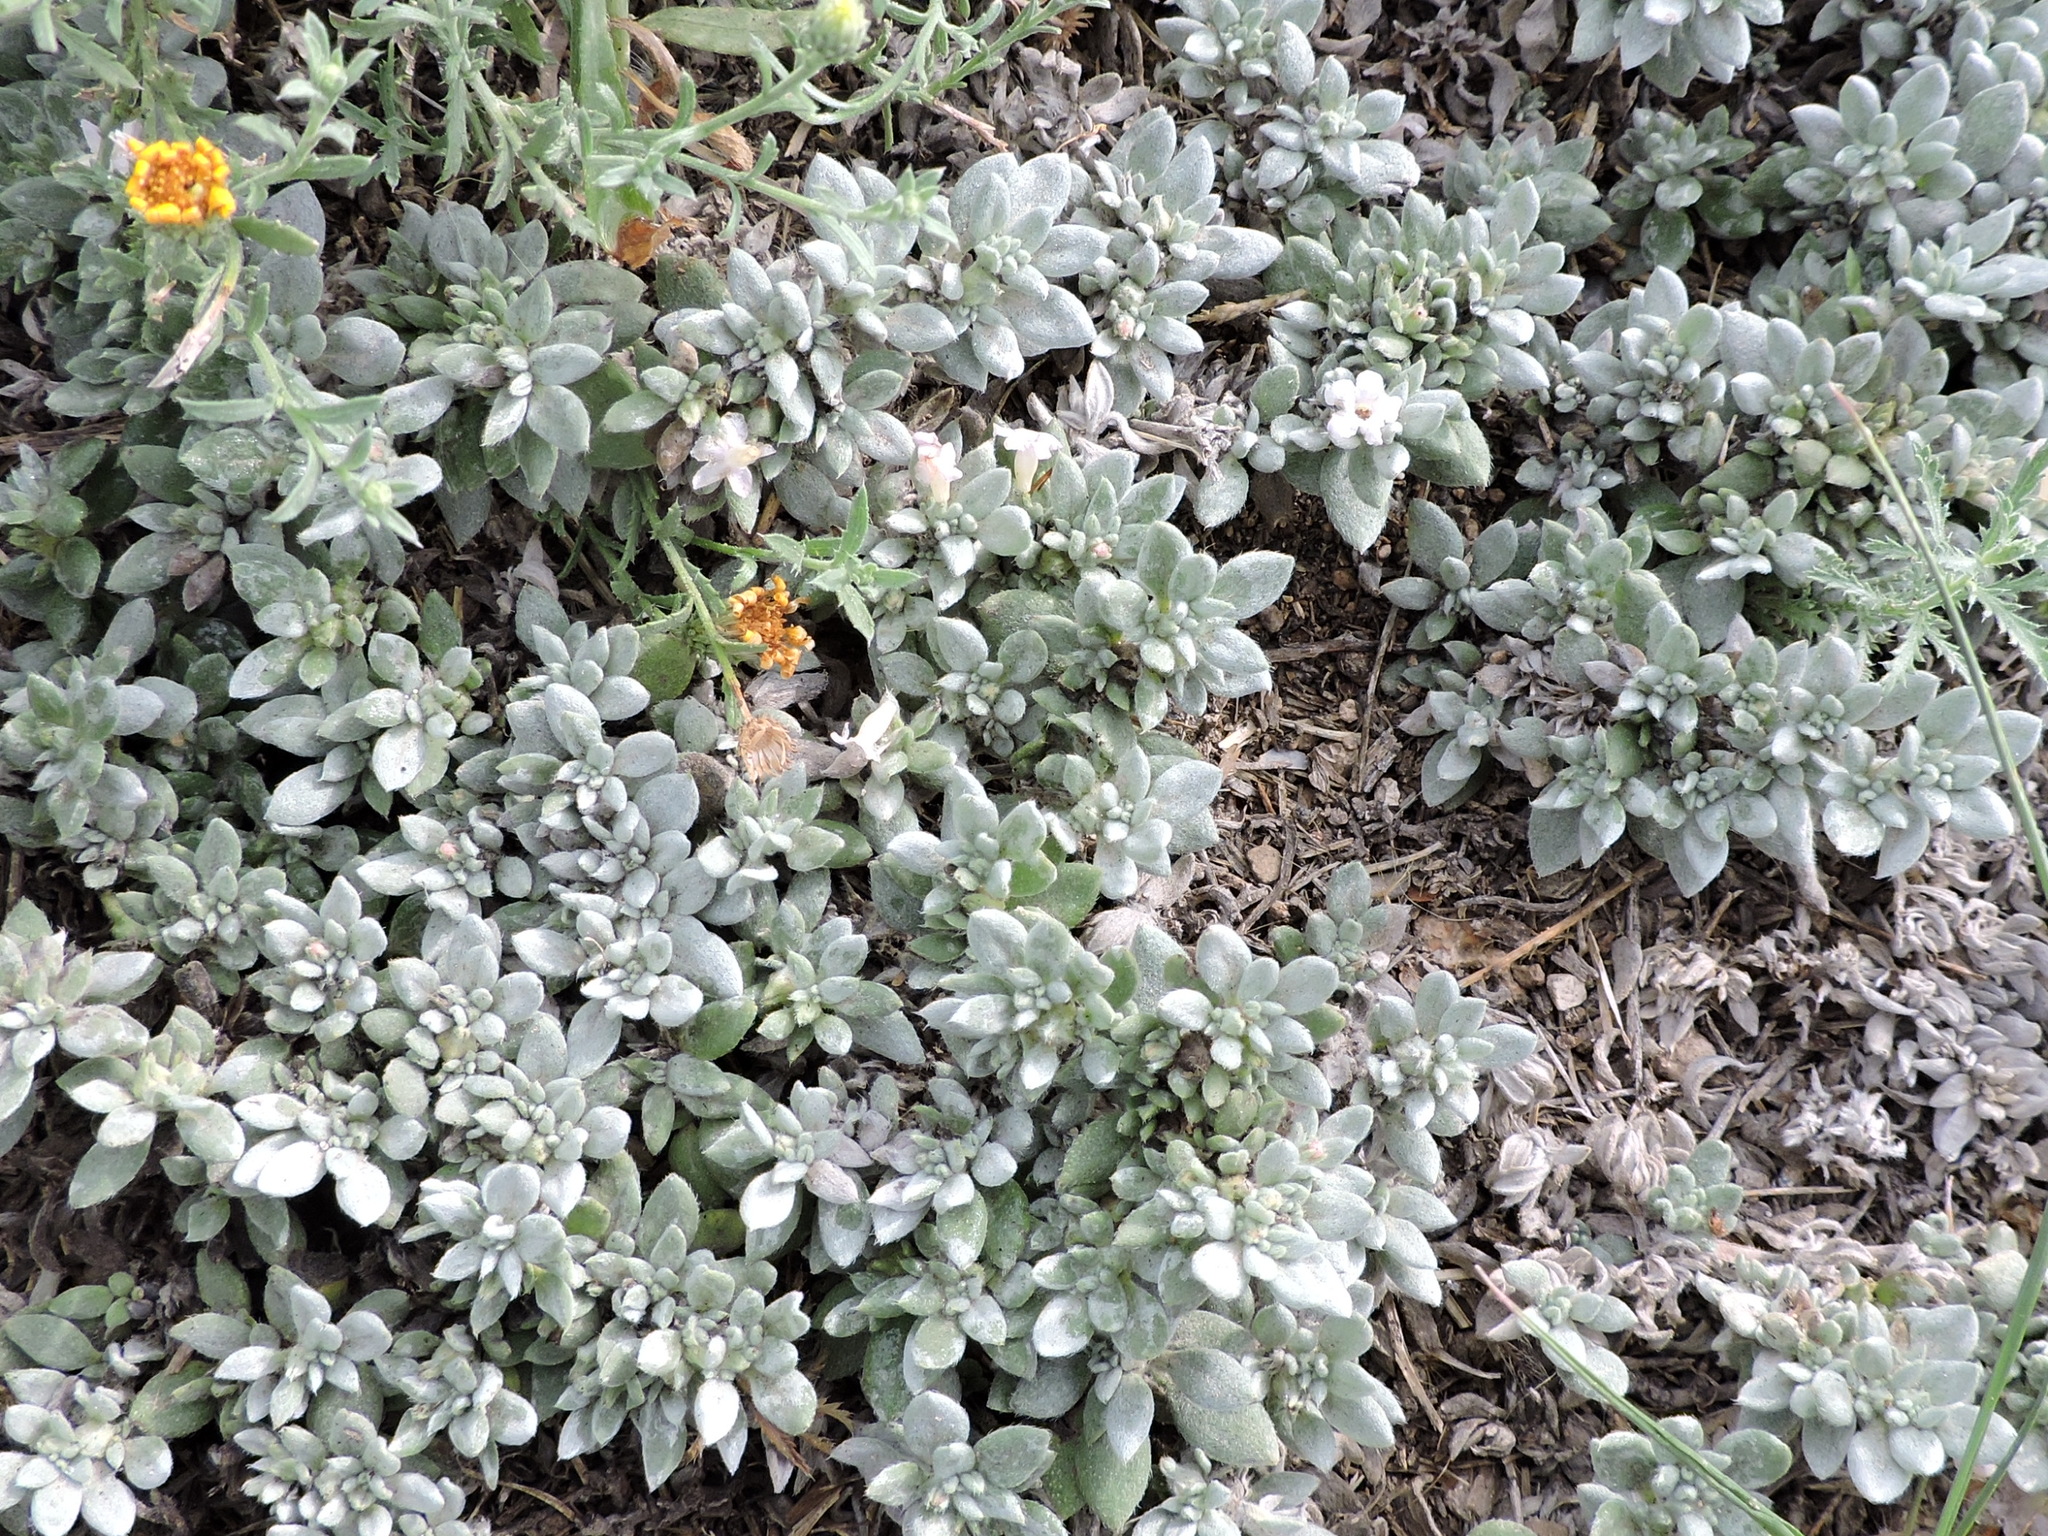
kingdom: Plantae
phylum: Tracheophyta
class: Magnoliopsida
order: Boraginales
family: Ehretiaceae
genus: Tiquilia
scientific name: Tiquilia canescens
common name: Hairy tiquilia
